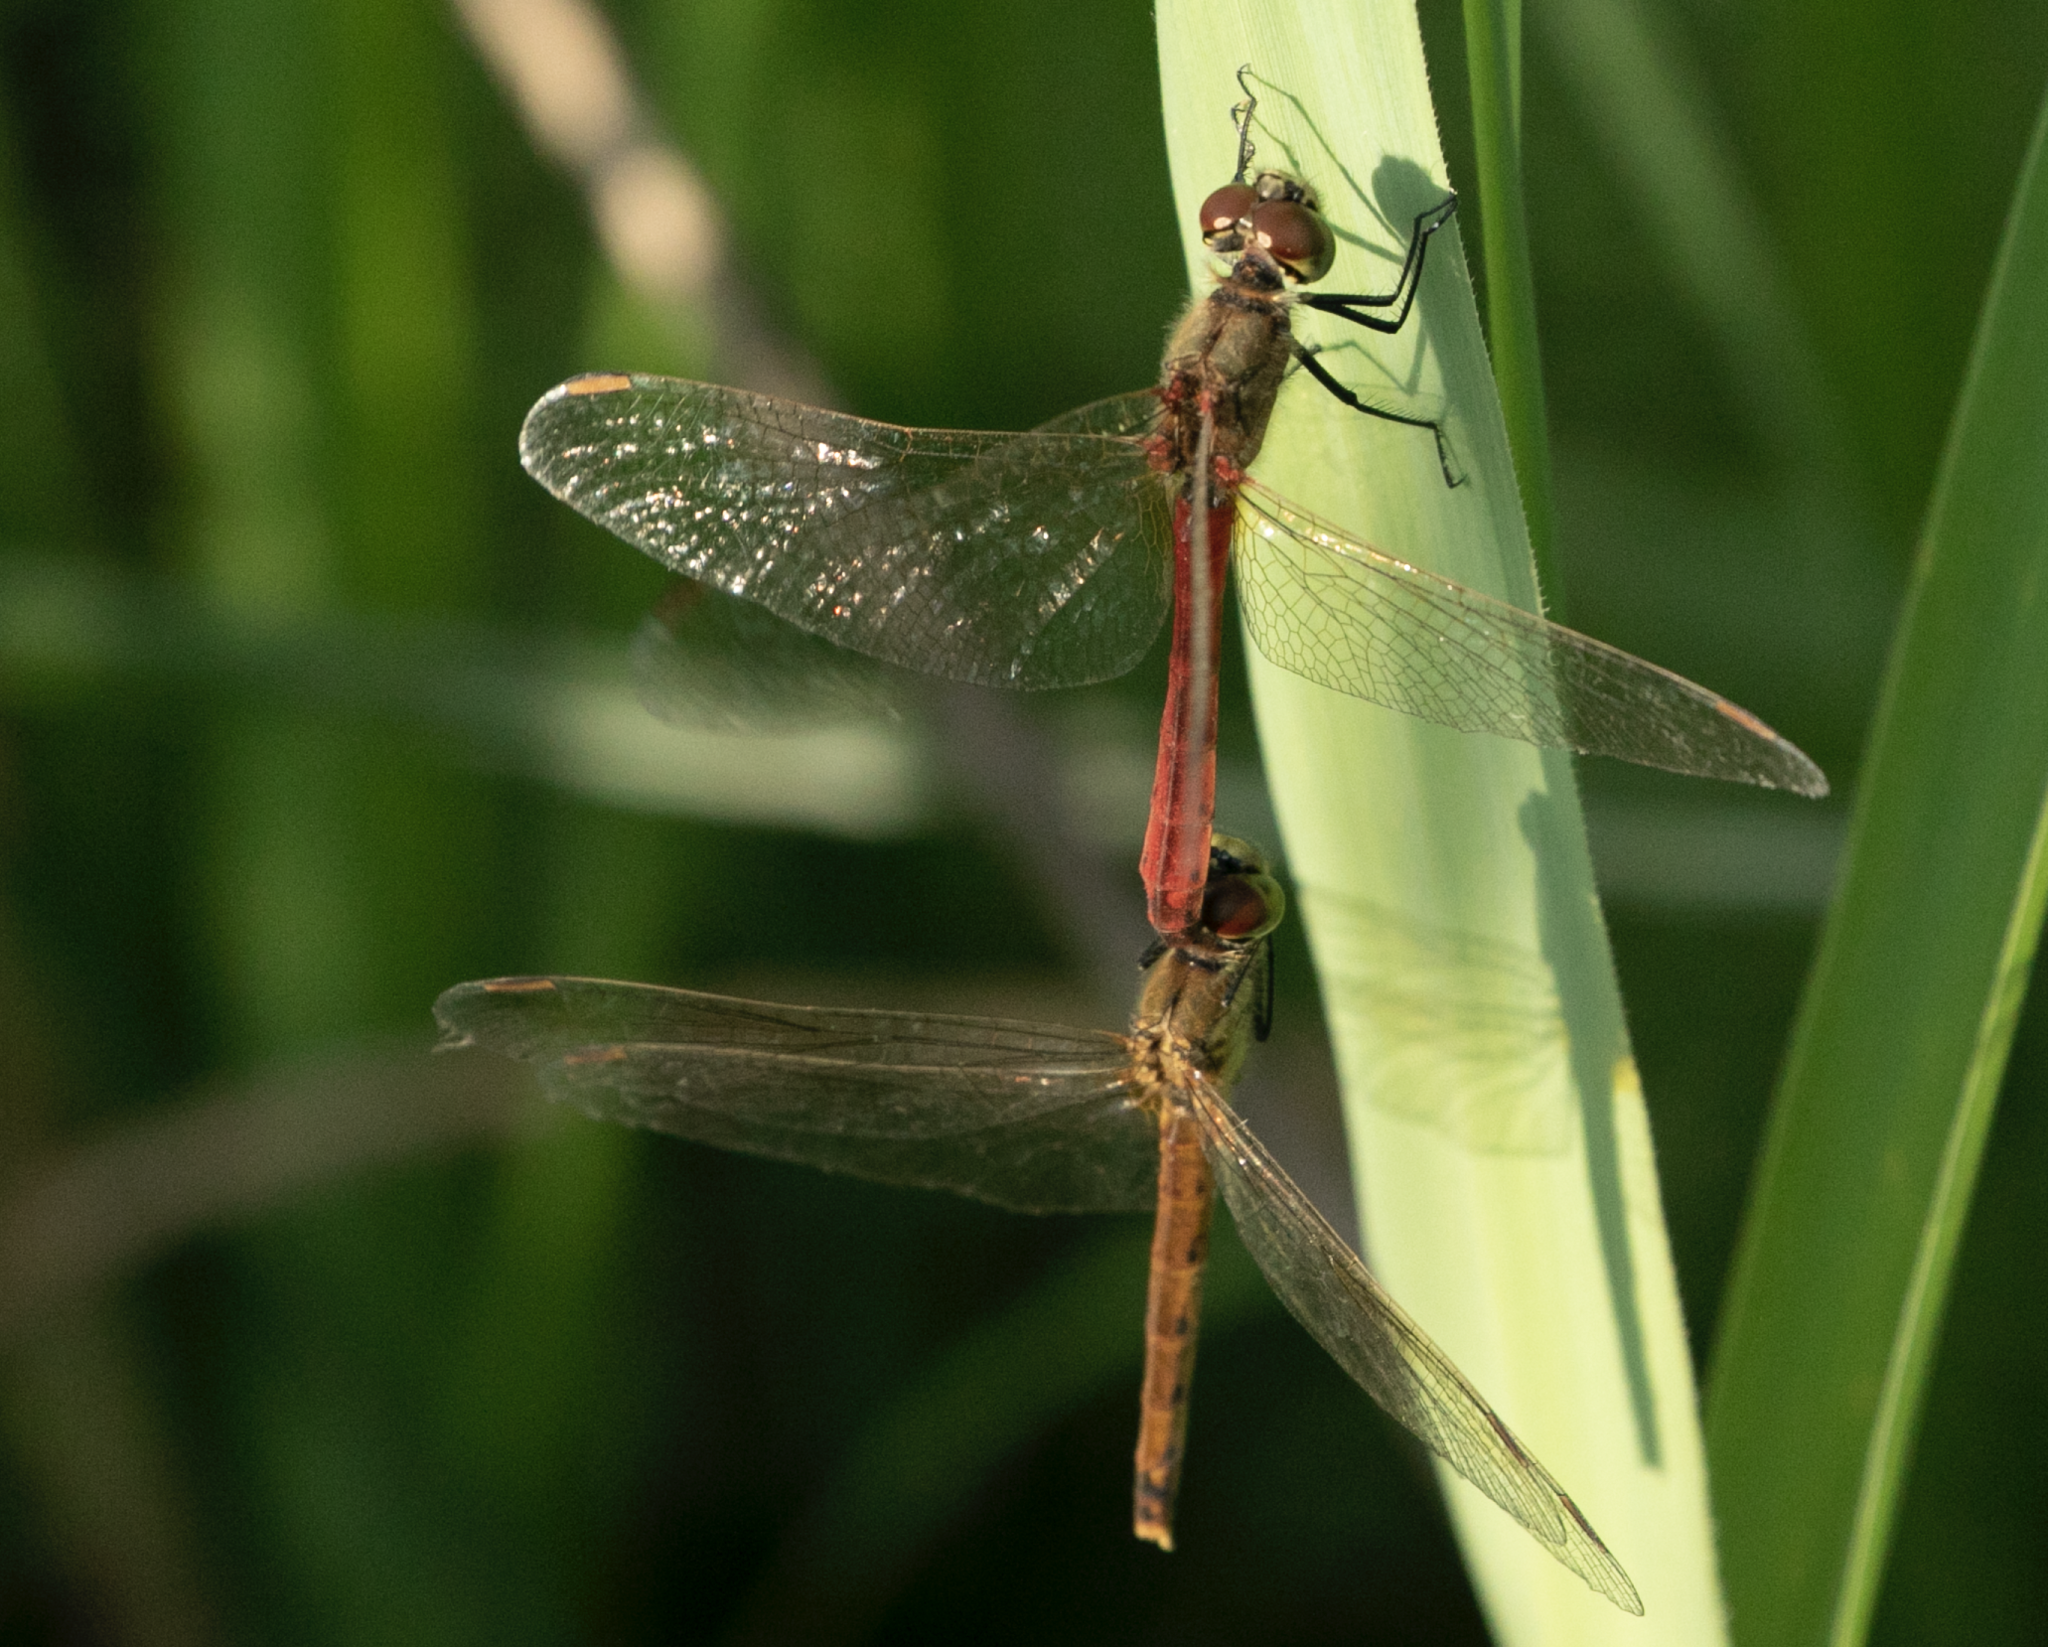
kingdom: Animalia
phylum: Arthropoda
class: Insecta
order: Odonata
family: Libellulidae
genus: Sympetrum
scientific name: Sympetrum depressiusculum
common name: Spotted darter
